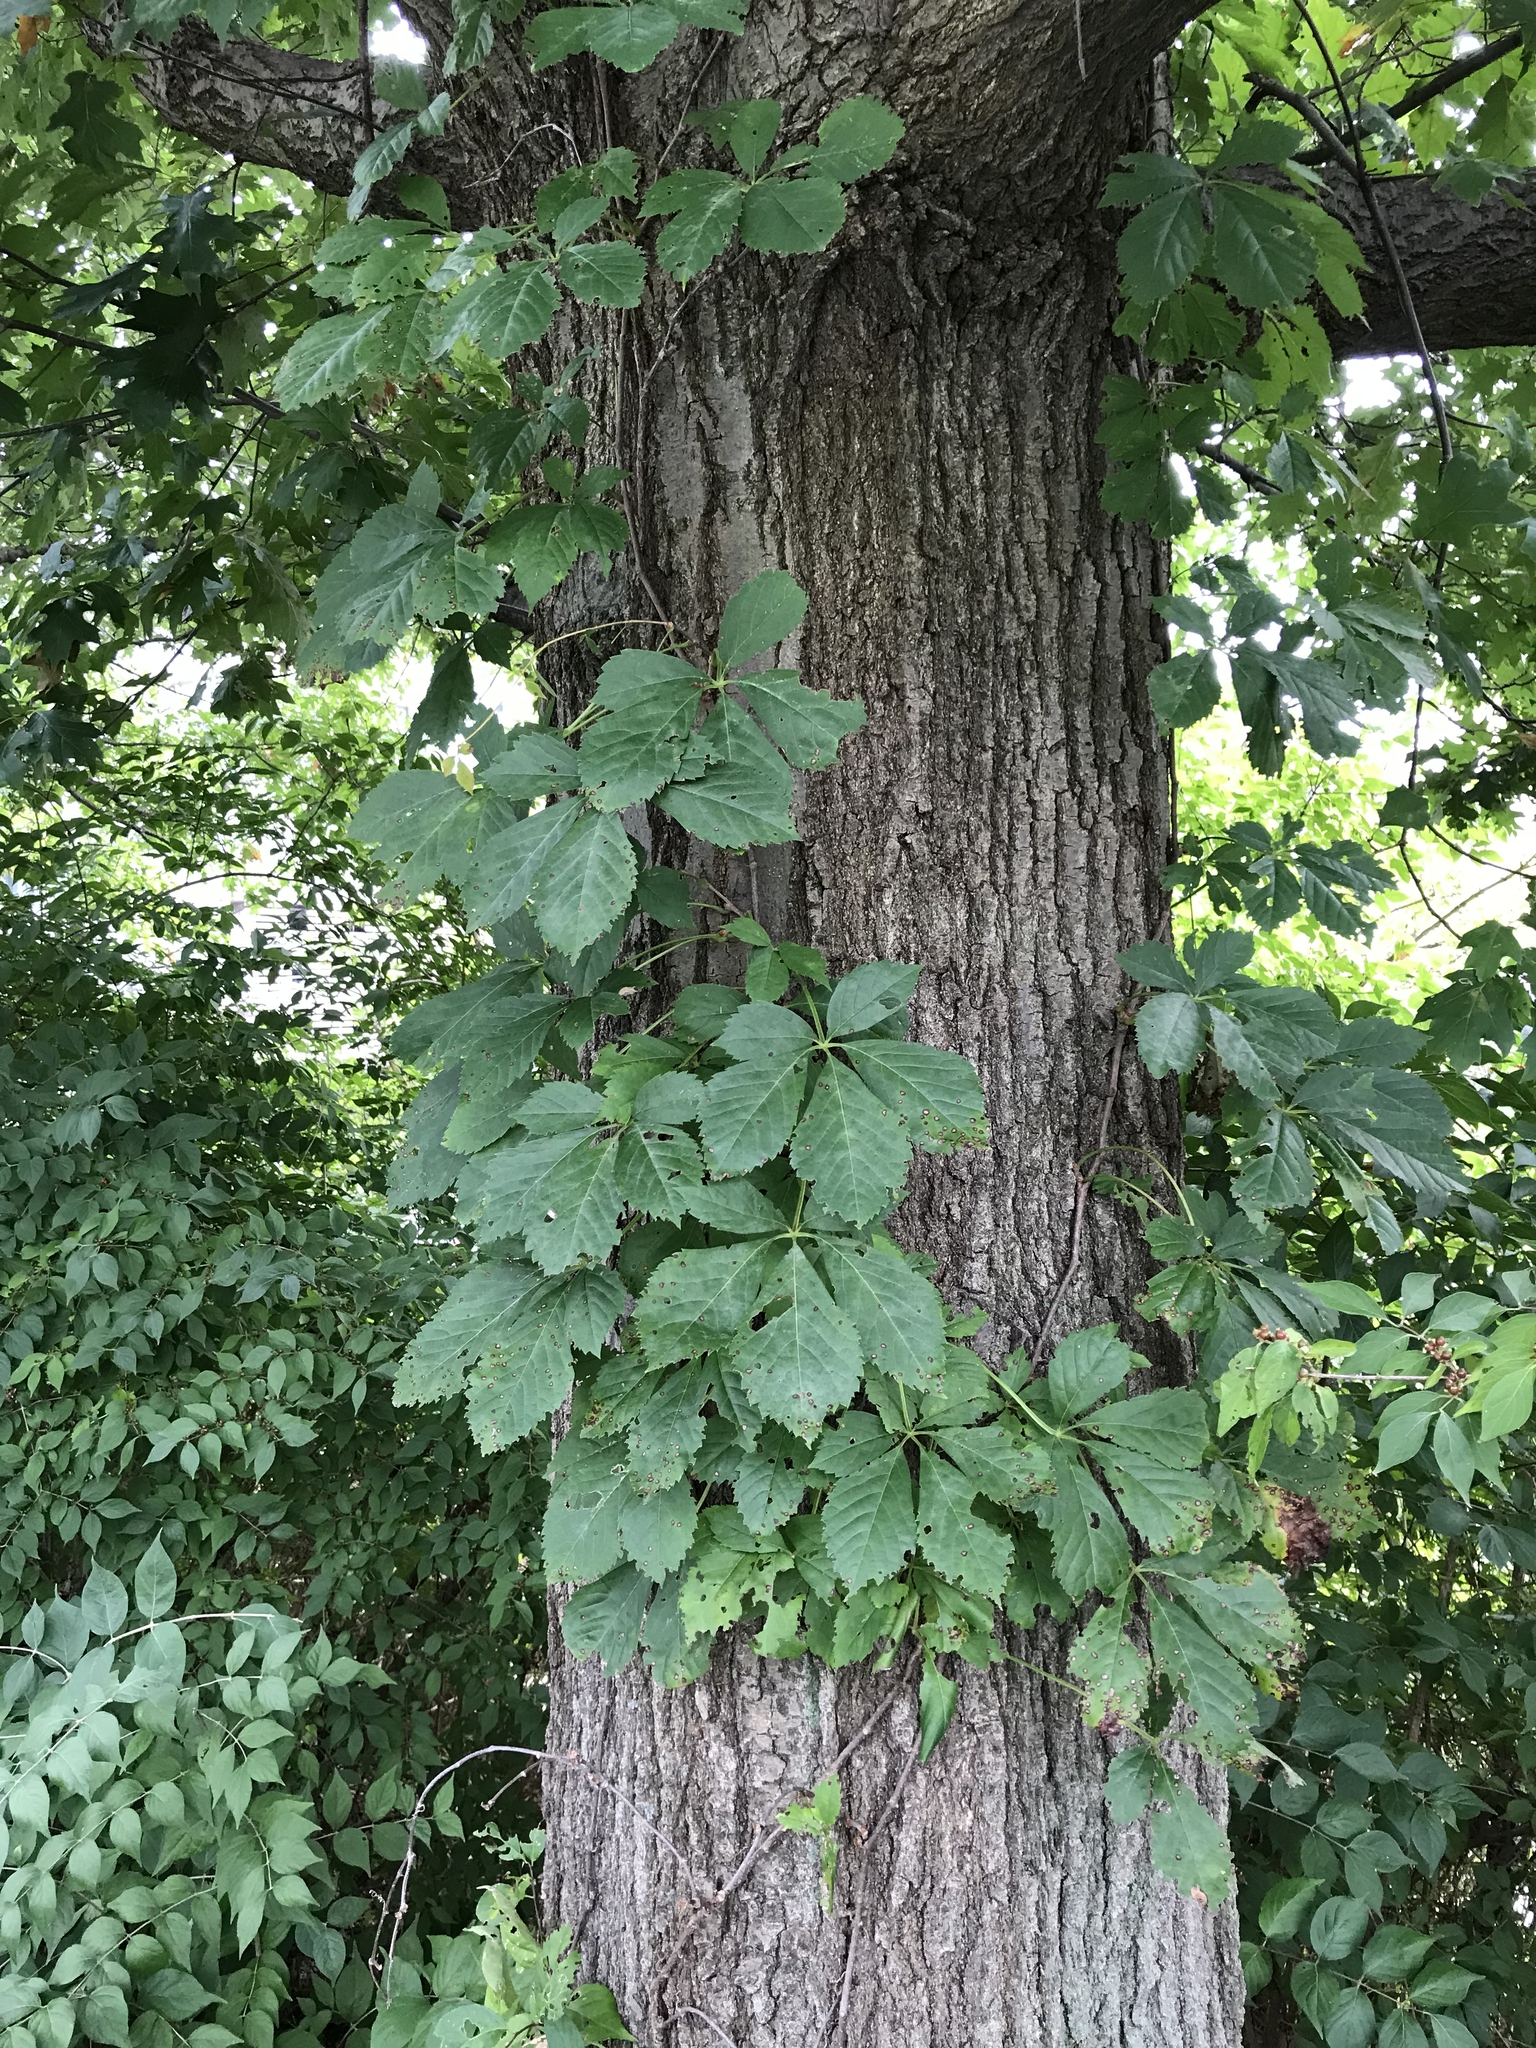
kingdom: Plantae
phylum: Tracheophyta
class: Magnoliopsida
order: Vitales
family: Vitaceae
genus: Parthenocissus
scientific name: Parthenocissus quinquefolia
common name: Virginia-creeper
